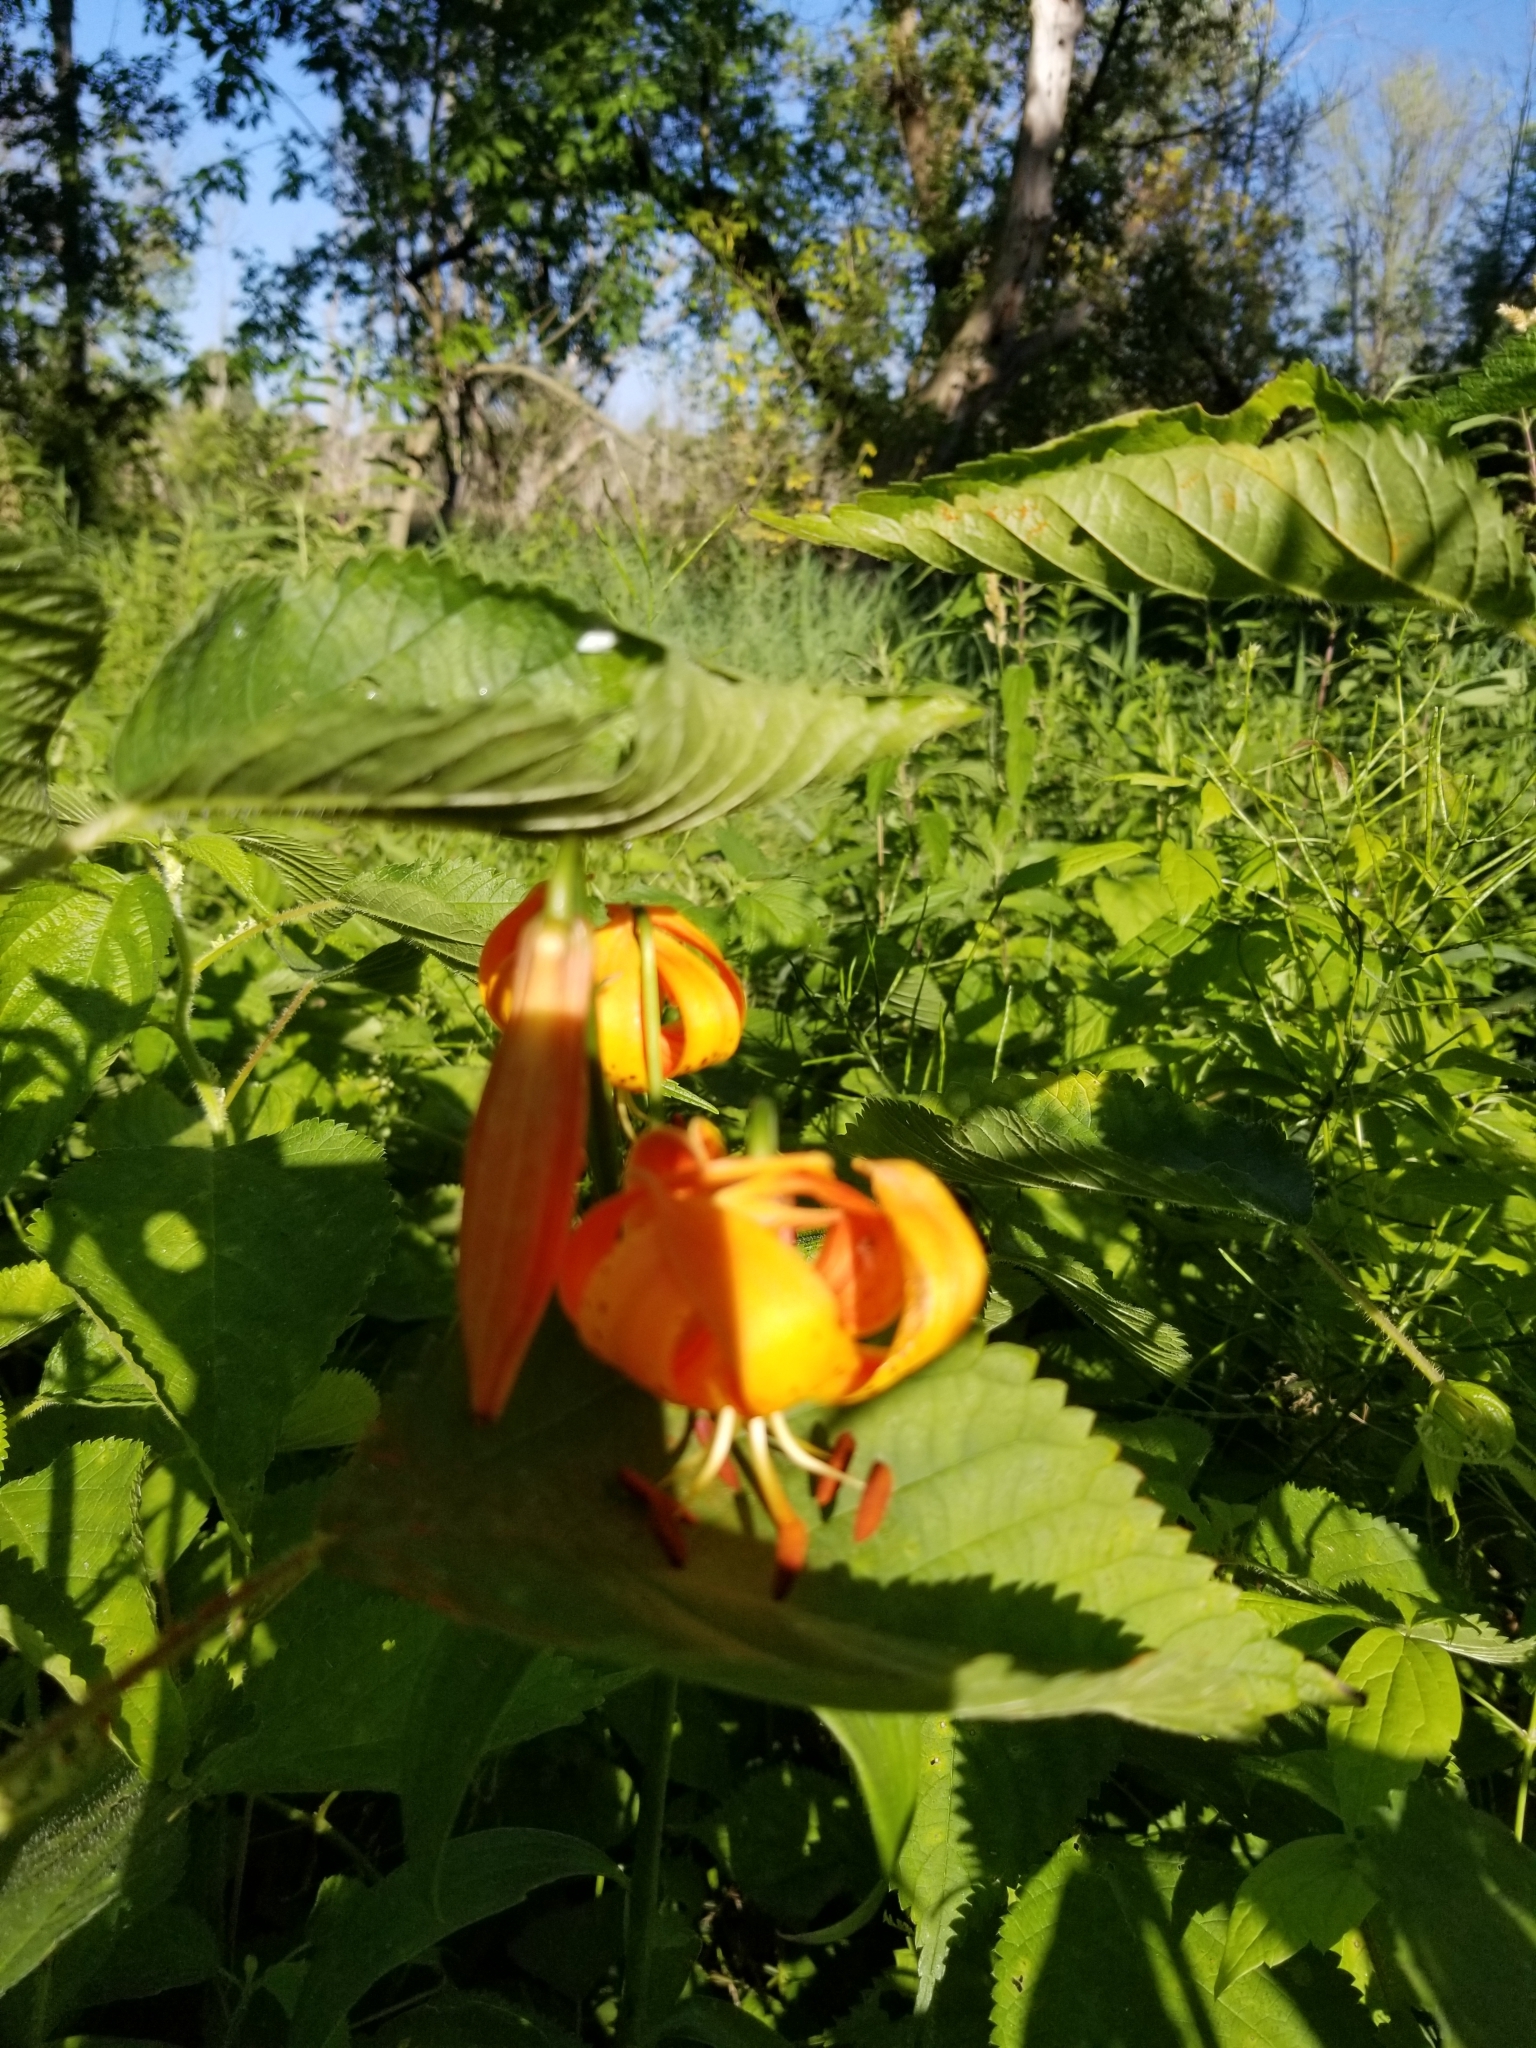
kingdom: Plantae
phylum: Tracheophyta
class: Liliopsida
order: Liliales
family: Liliaceae
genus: Lilium
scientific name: Lilium michiganense
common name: Michigan lily
